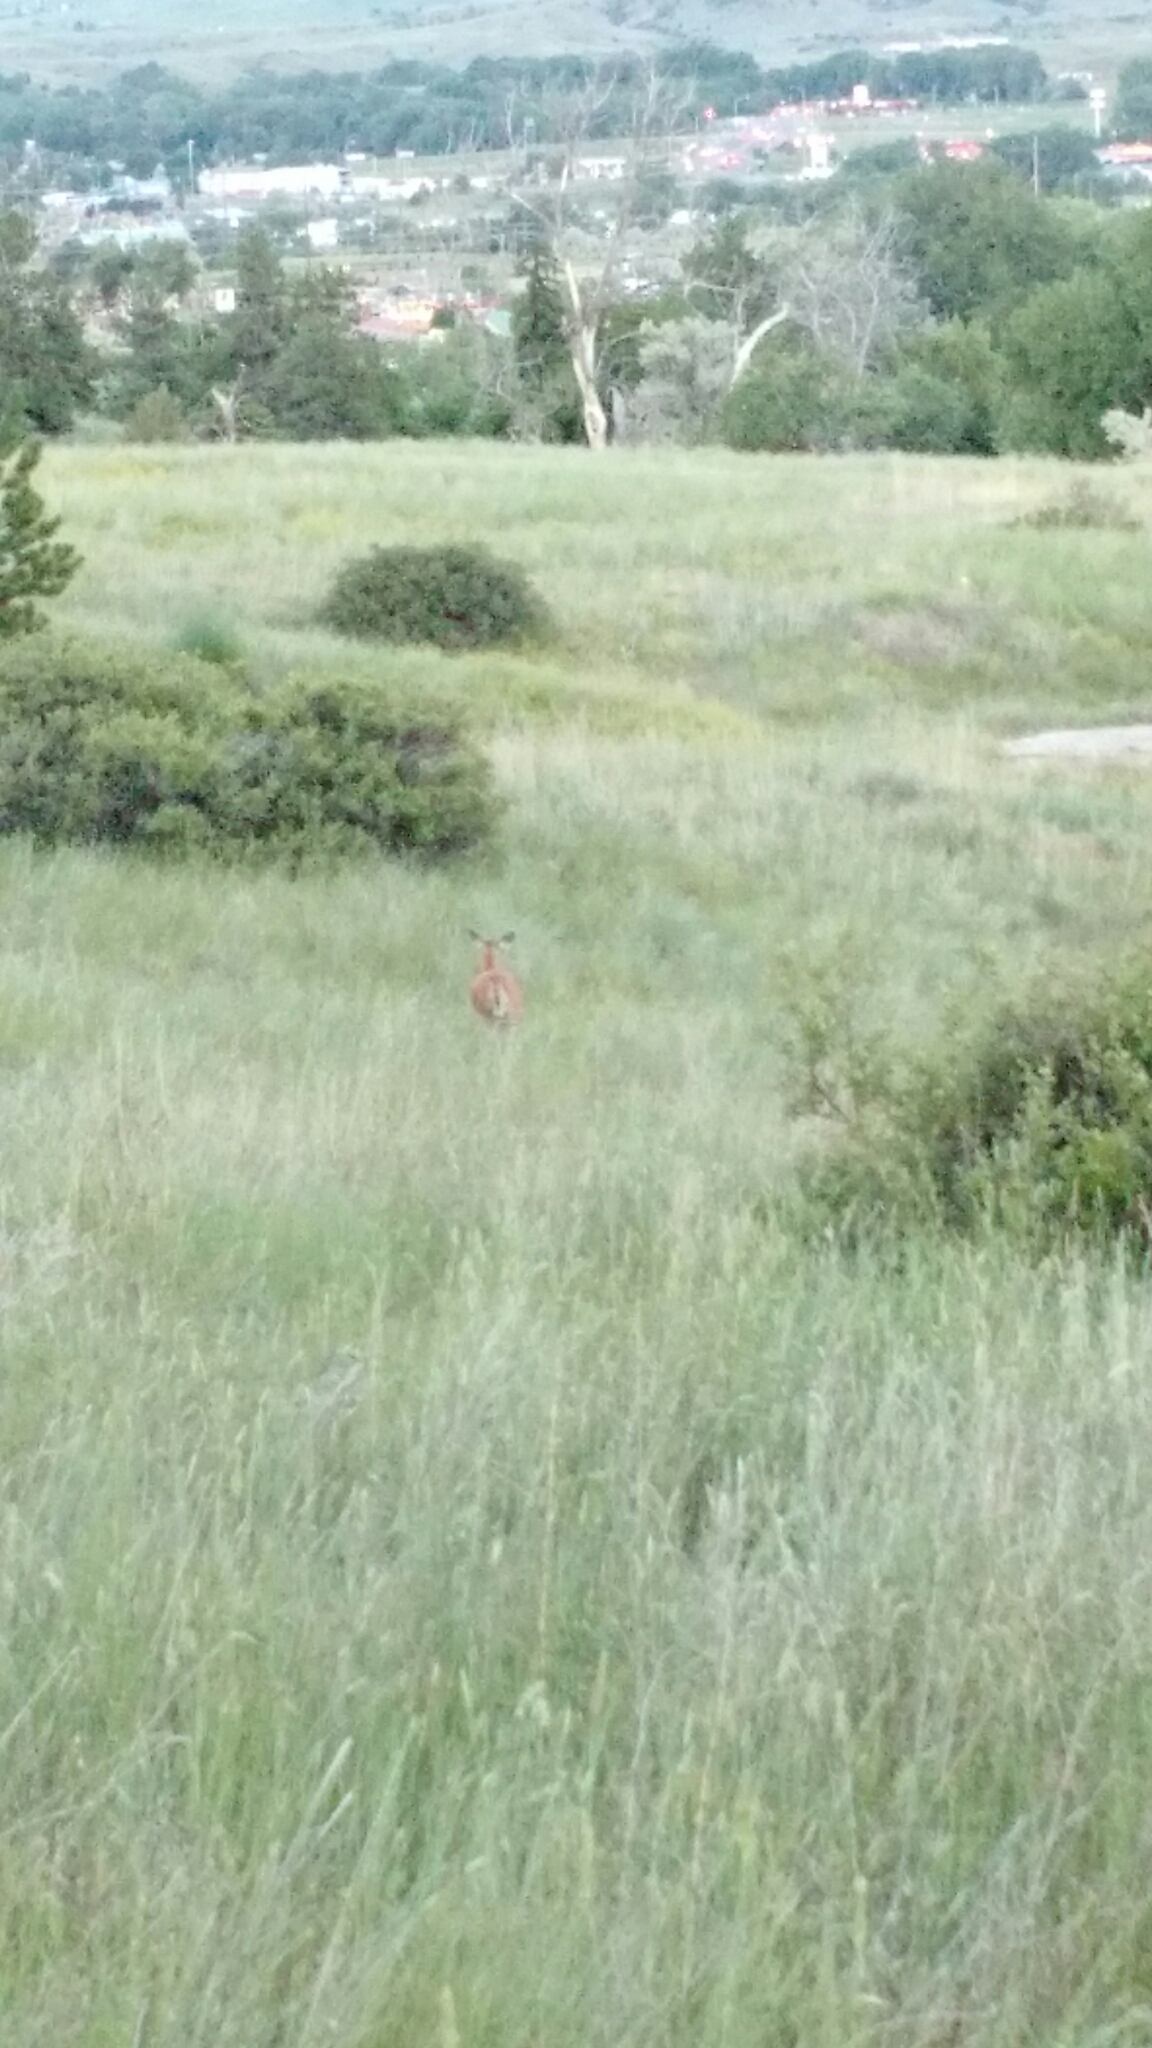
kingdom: Animalia
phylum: Chordata
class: Mammalia
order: Artiodactyla
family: Cervidae
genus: Odocoileus
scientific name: Odocoileus virginianus
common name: White-tailed deer
